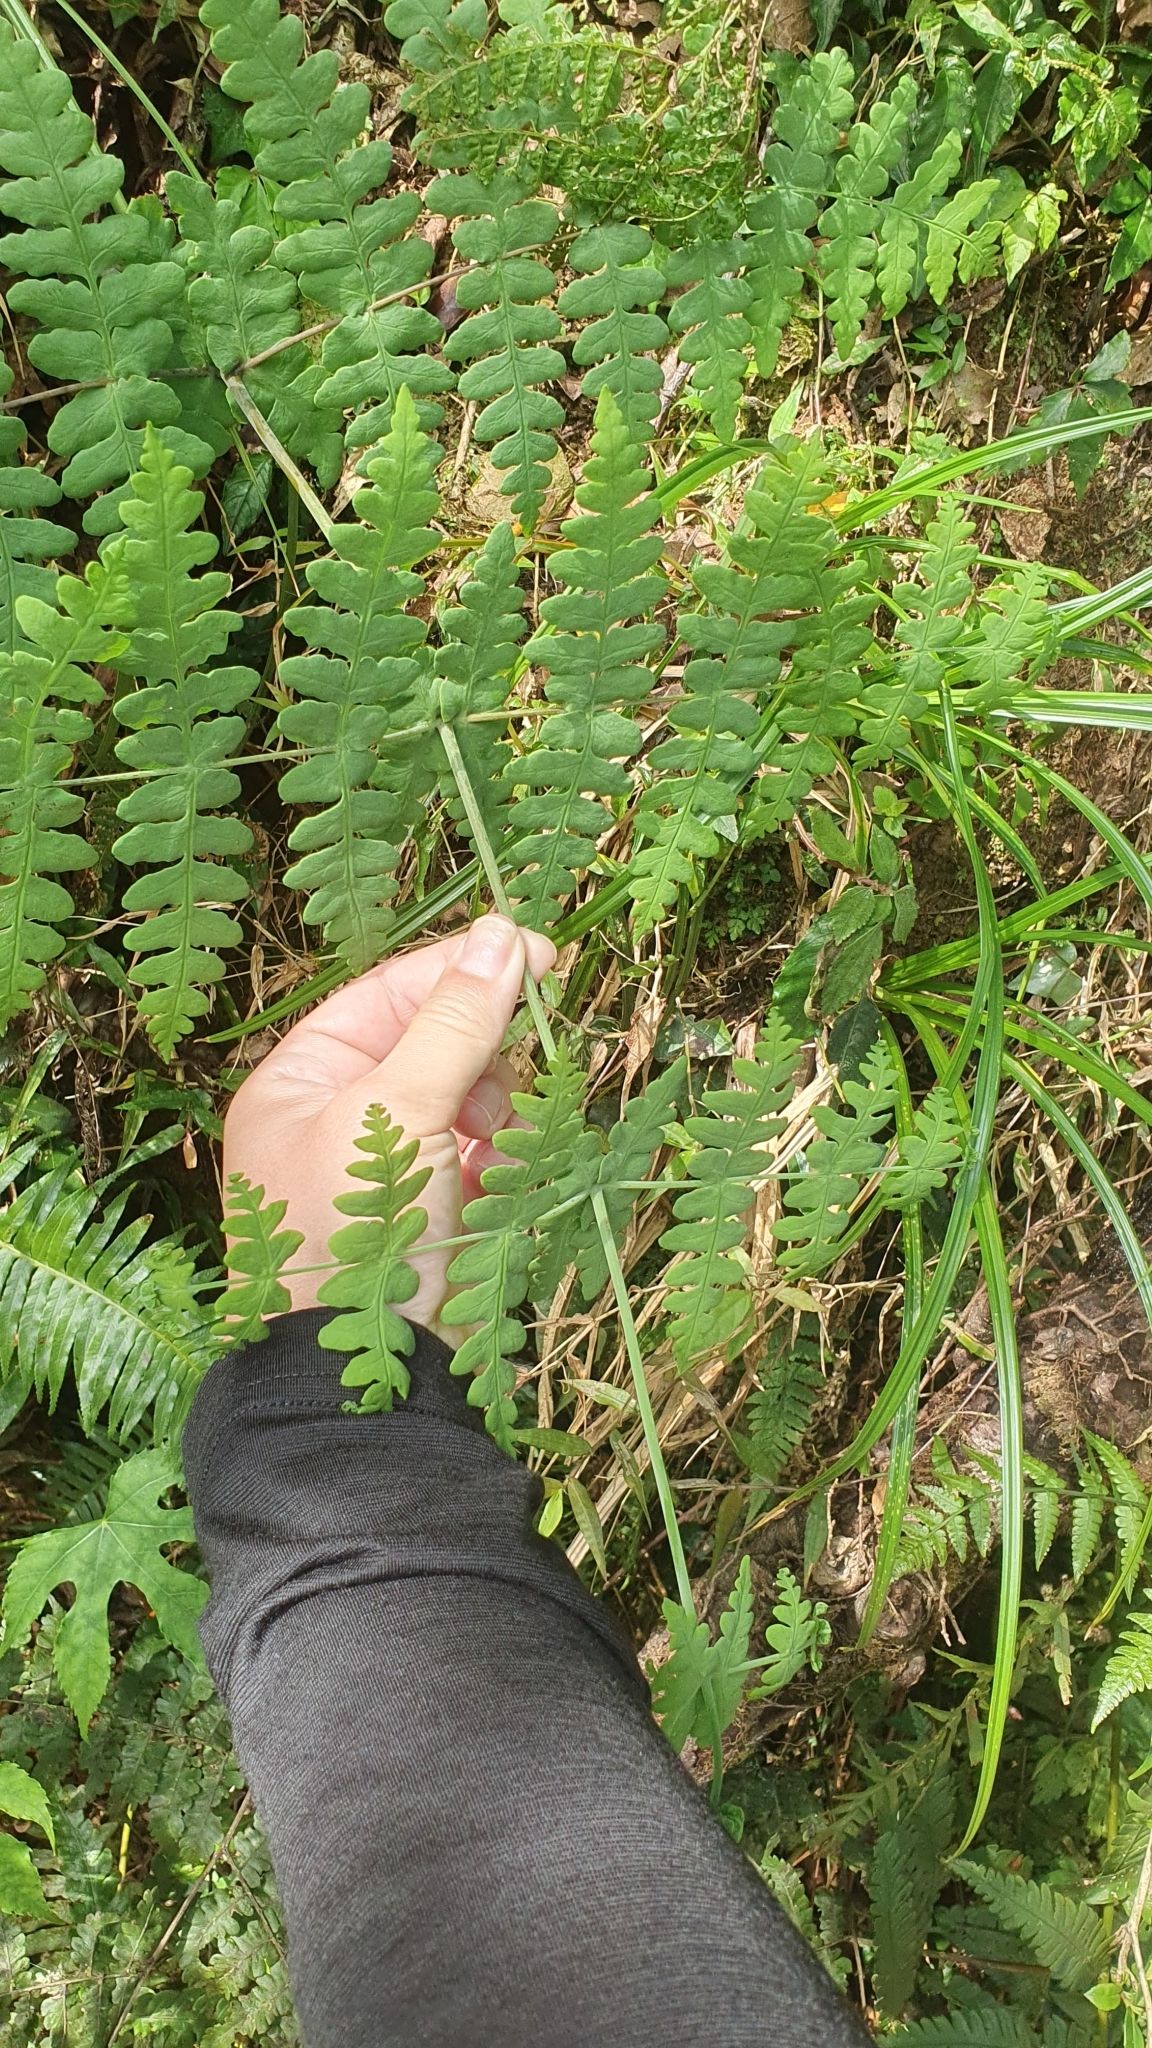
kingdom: Plantae
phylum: Tracheophyta
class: Polypodiopsida
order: Polypodiales
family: Dennstaedtiaceae
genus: Histiopteris
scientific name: Histiopteris incisa
